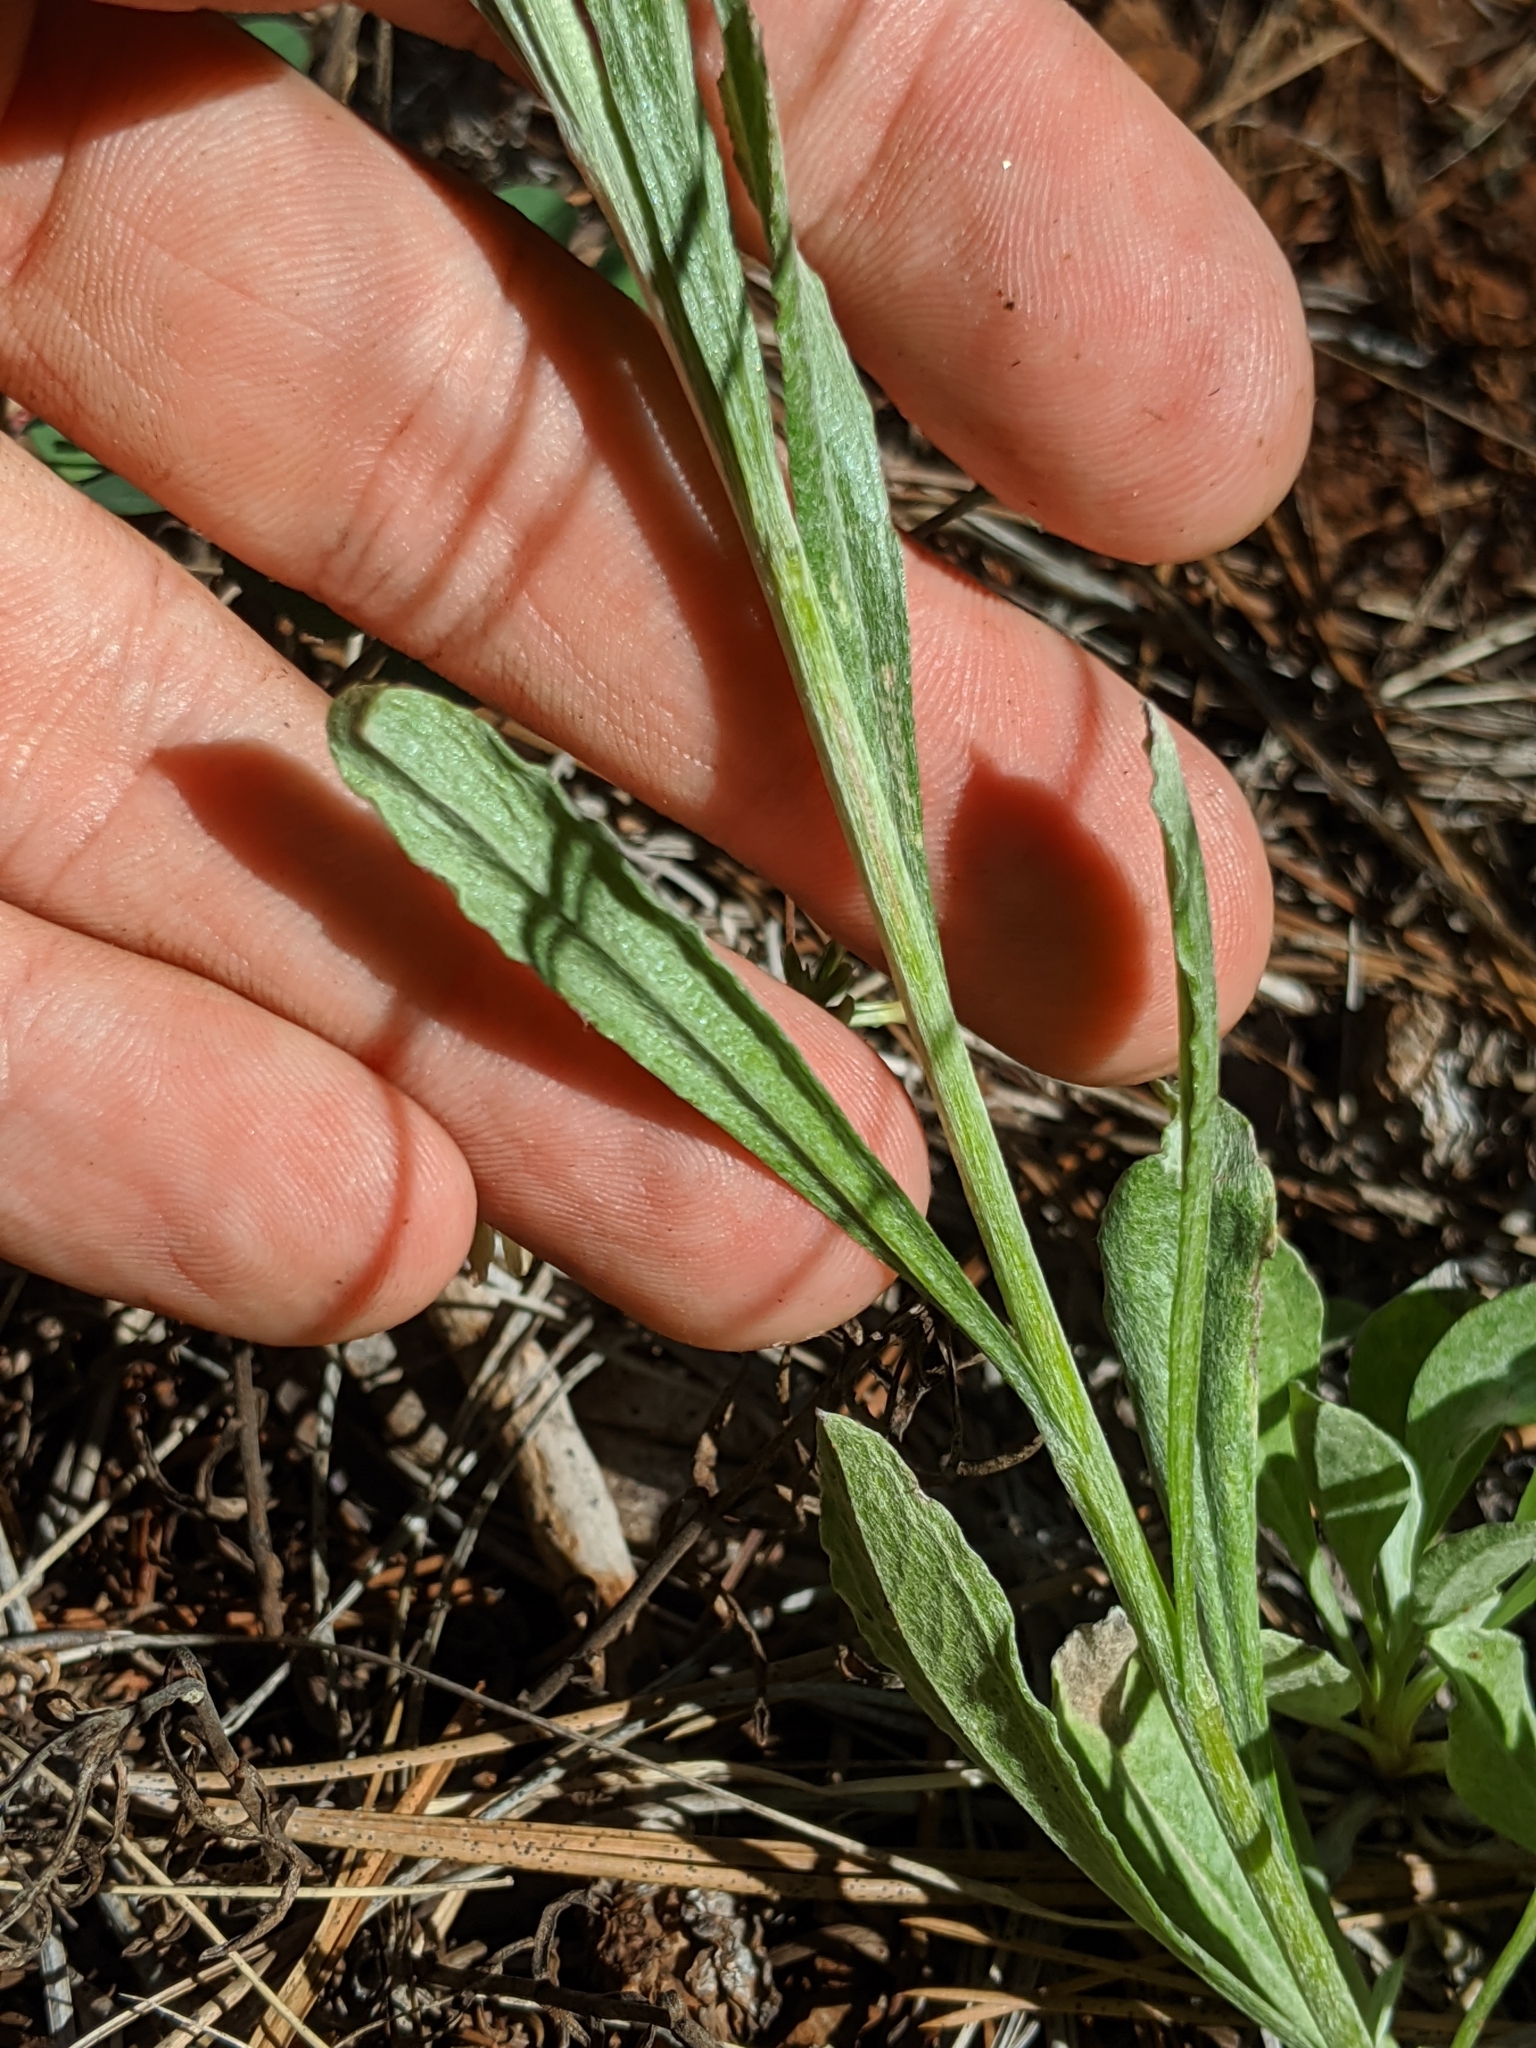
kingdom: Plantae
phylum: Tracheophyta
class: Magnoliopsida
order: Asterales
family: Asteraceae
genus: Antennaria
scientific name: Antennaria argentea
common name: Silver pussytoes
